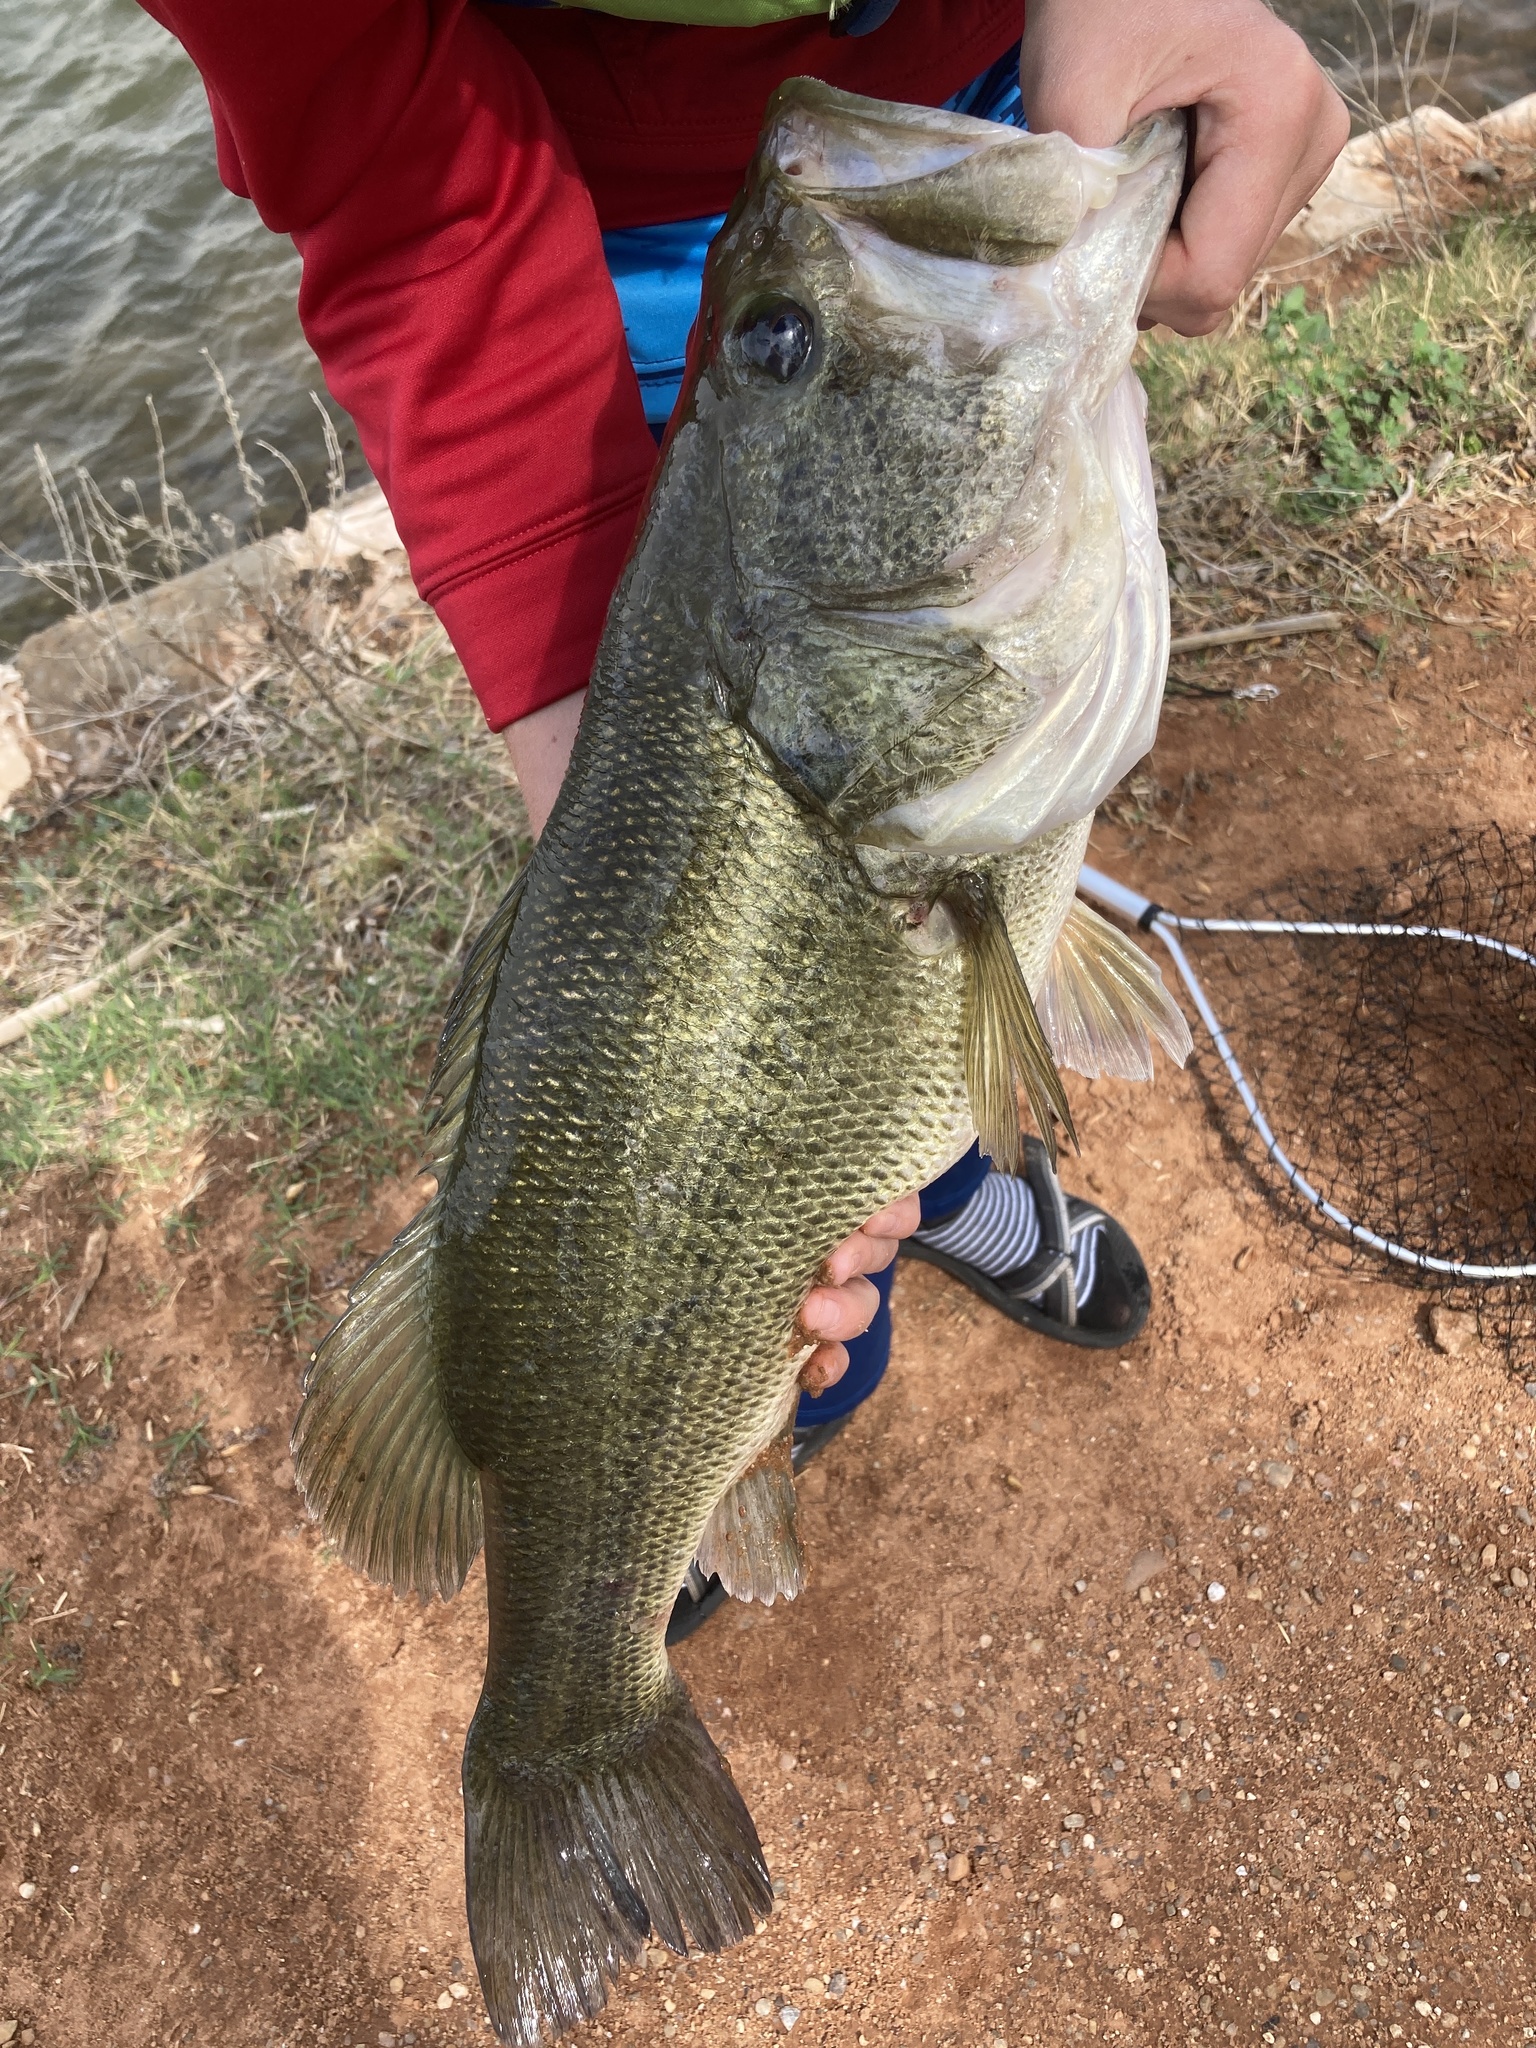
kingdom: Animalia
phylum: Chordata
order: Perciformes
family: Centrarchidae
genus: Micropterus
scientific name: Micropterus
